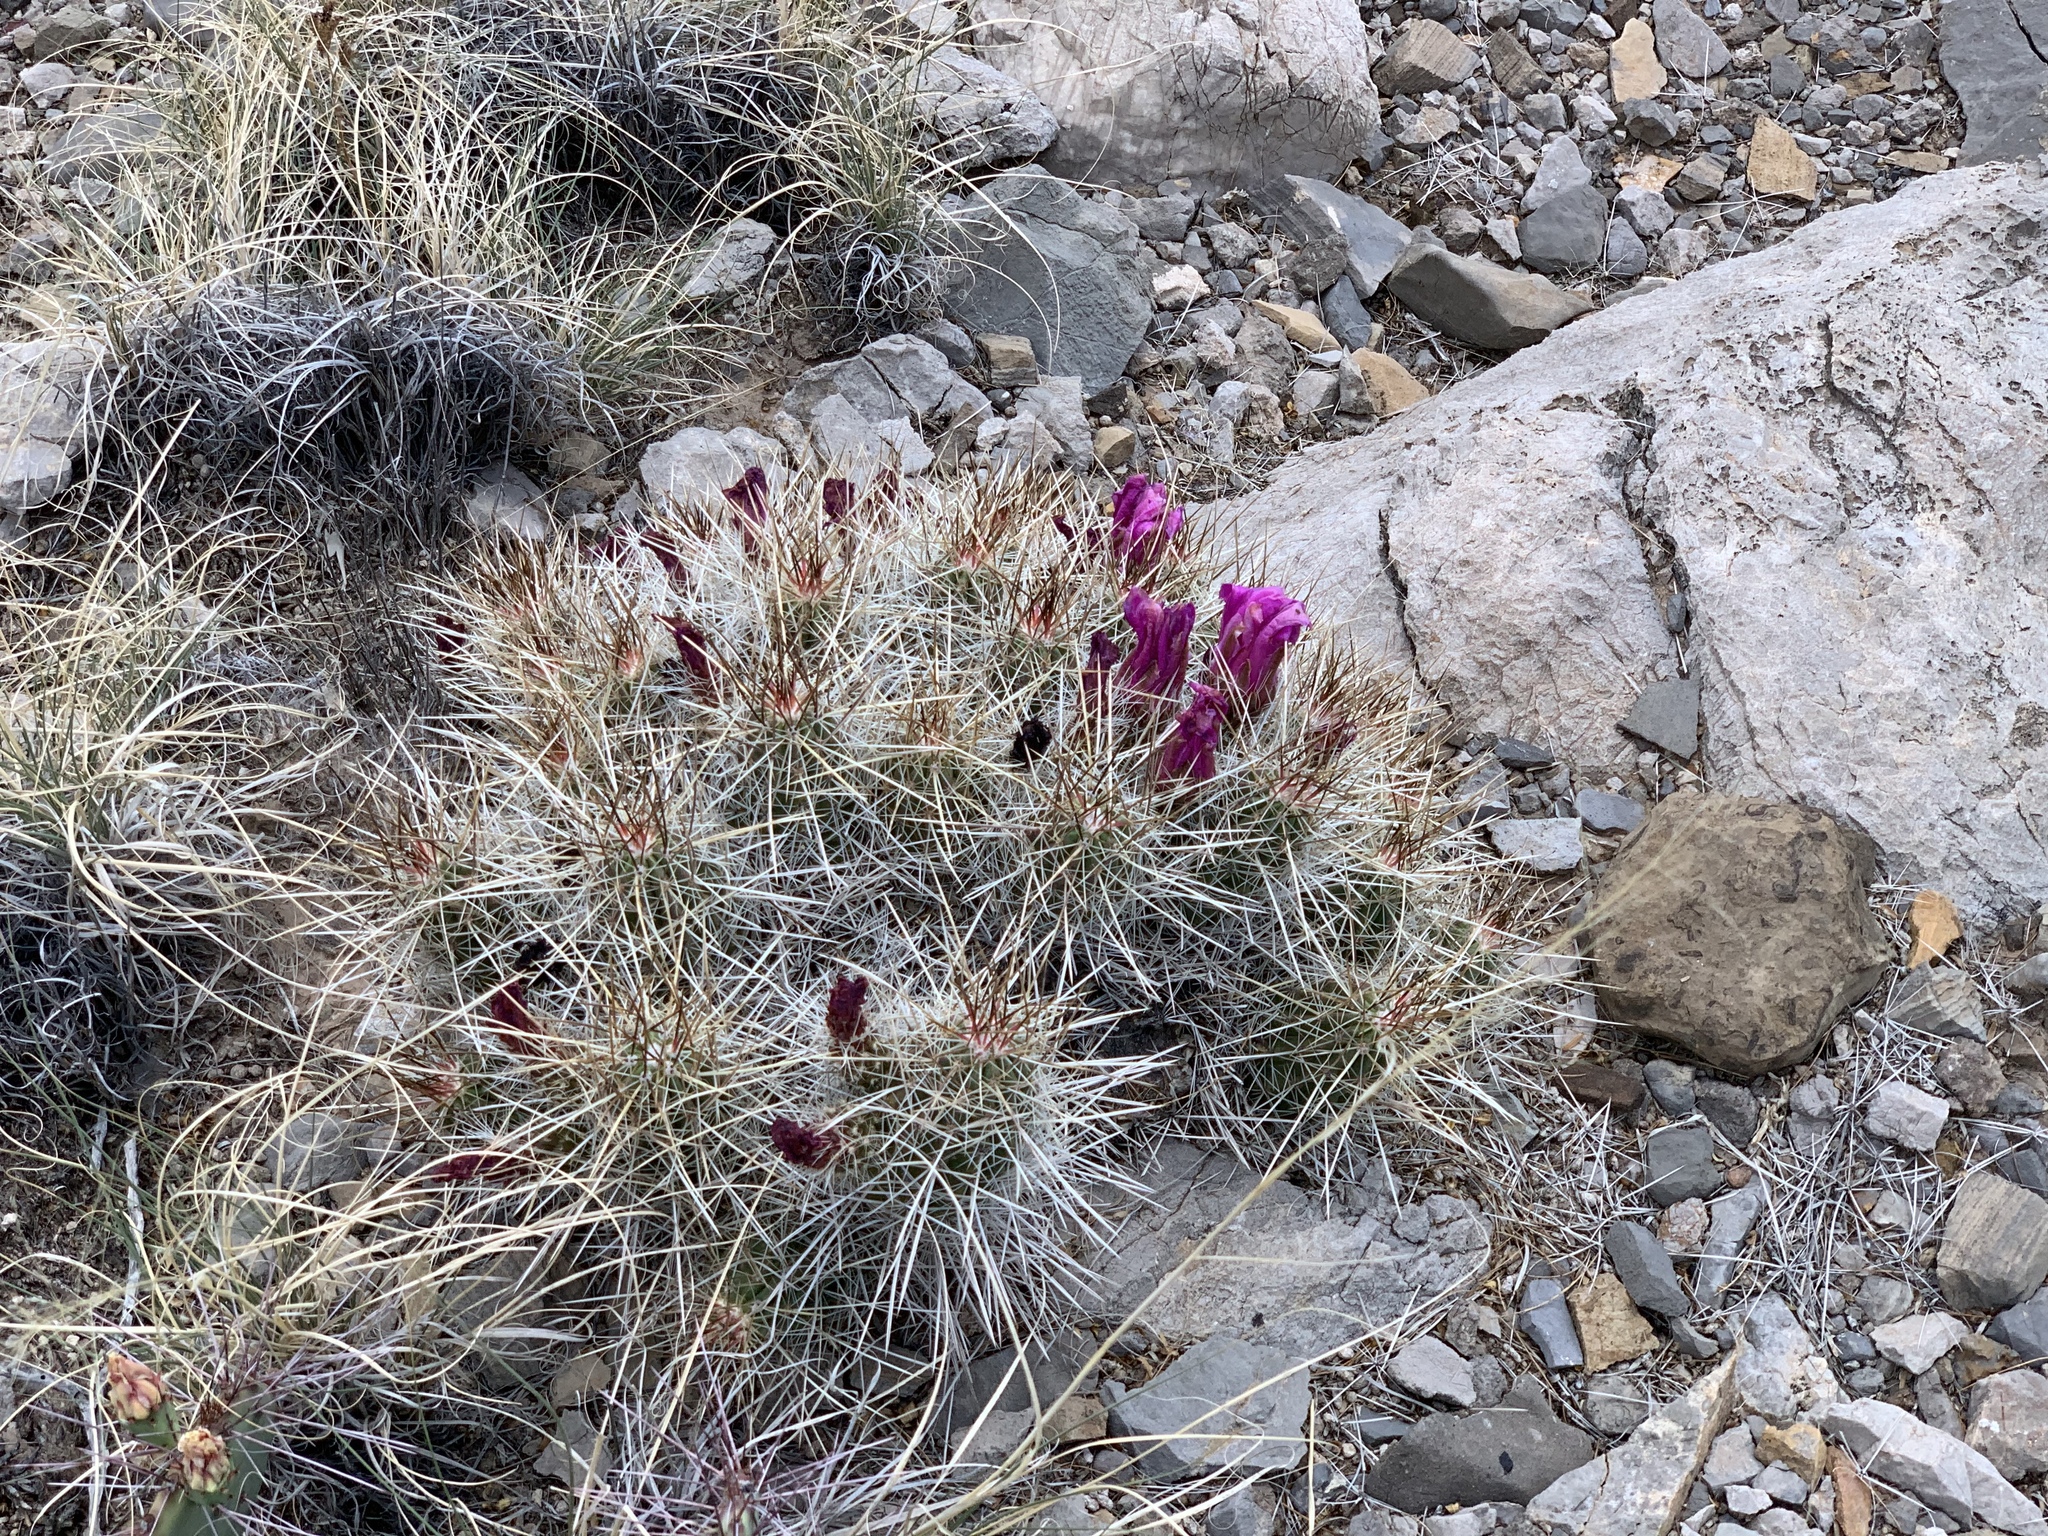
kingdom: Plantae
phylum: Tracheophyta
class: Magnoliopsida
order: Caryophyllales
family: Cactaceae
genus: Echinocereus
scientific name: Echinocereus stramineus
